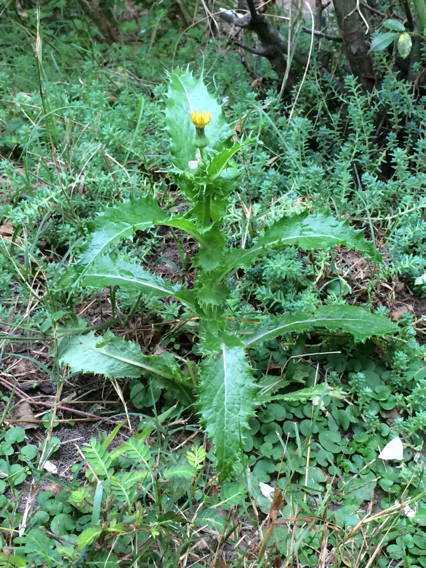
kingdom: Plantae
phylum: Tracheophyta
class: Magnoliopsida
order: Asterales
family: Asteraceae
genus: Sonchus
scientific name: Sonchus asper
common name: Prickly sow-thistle
